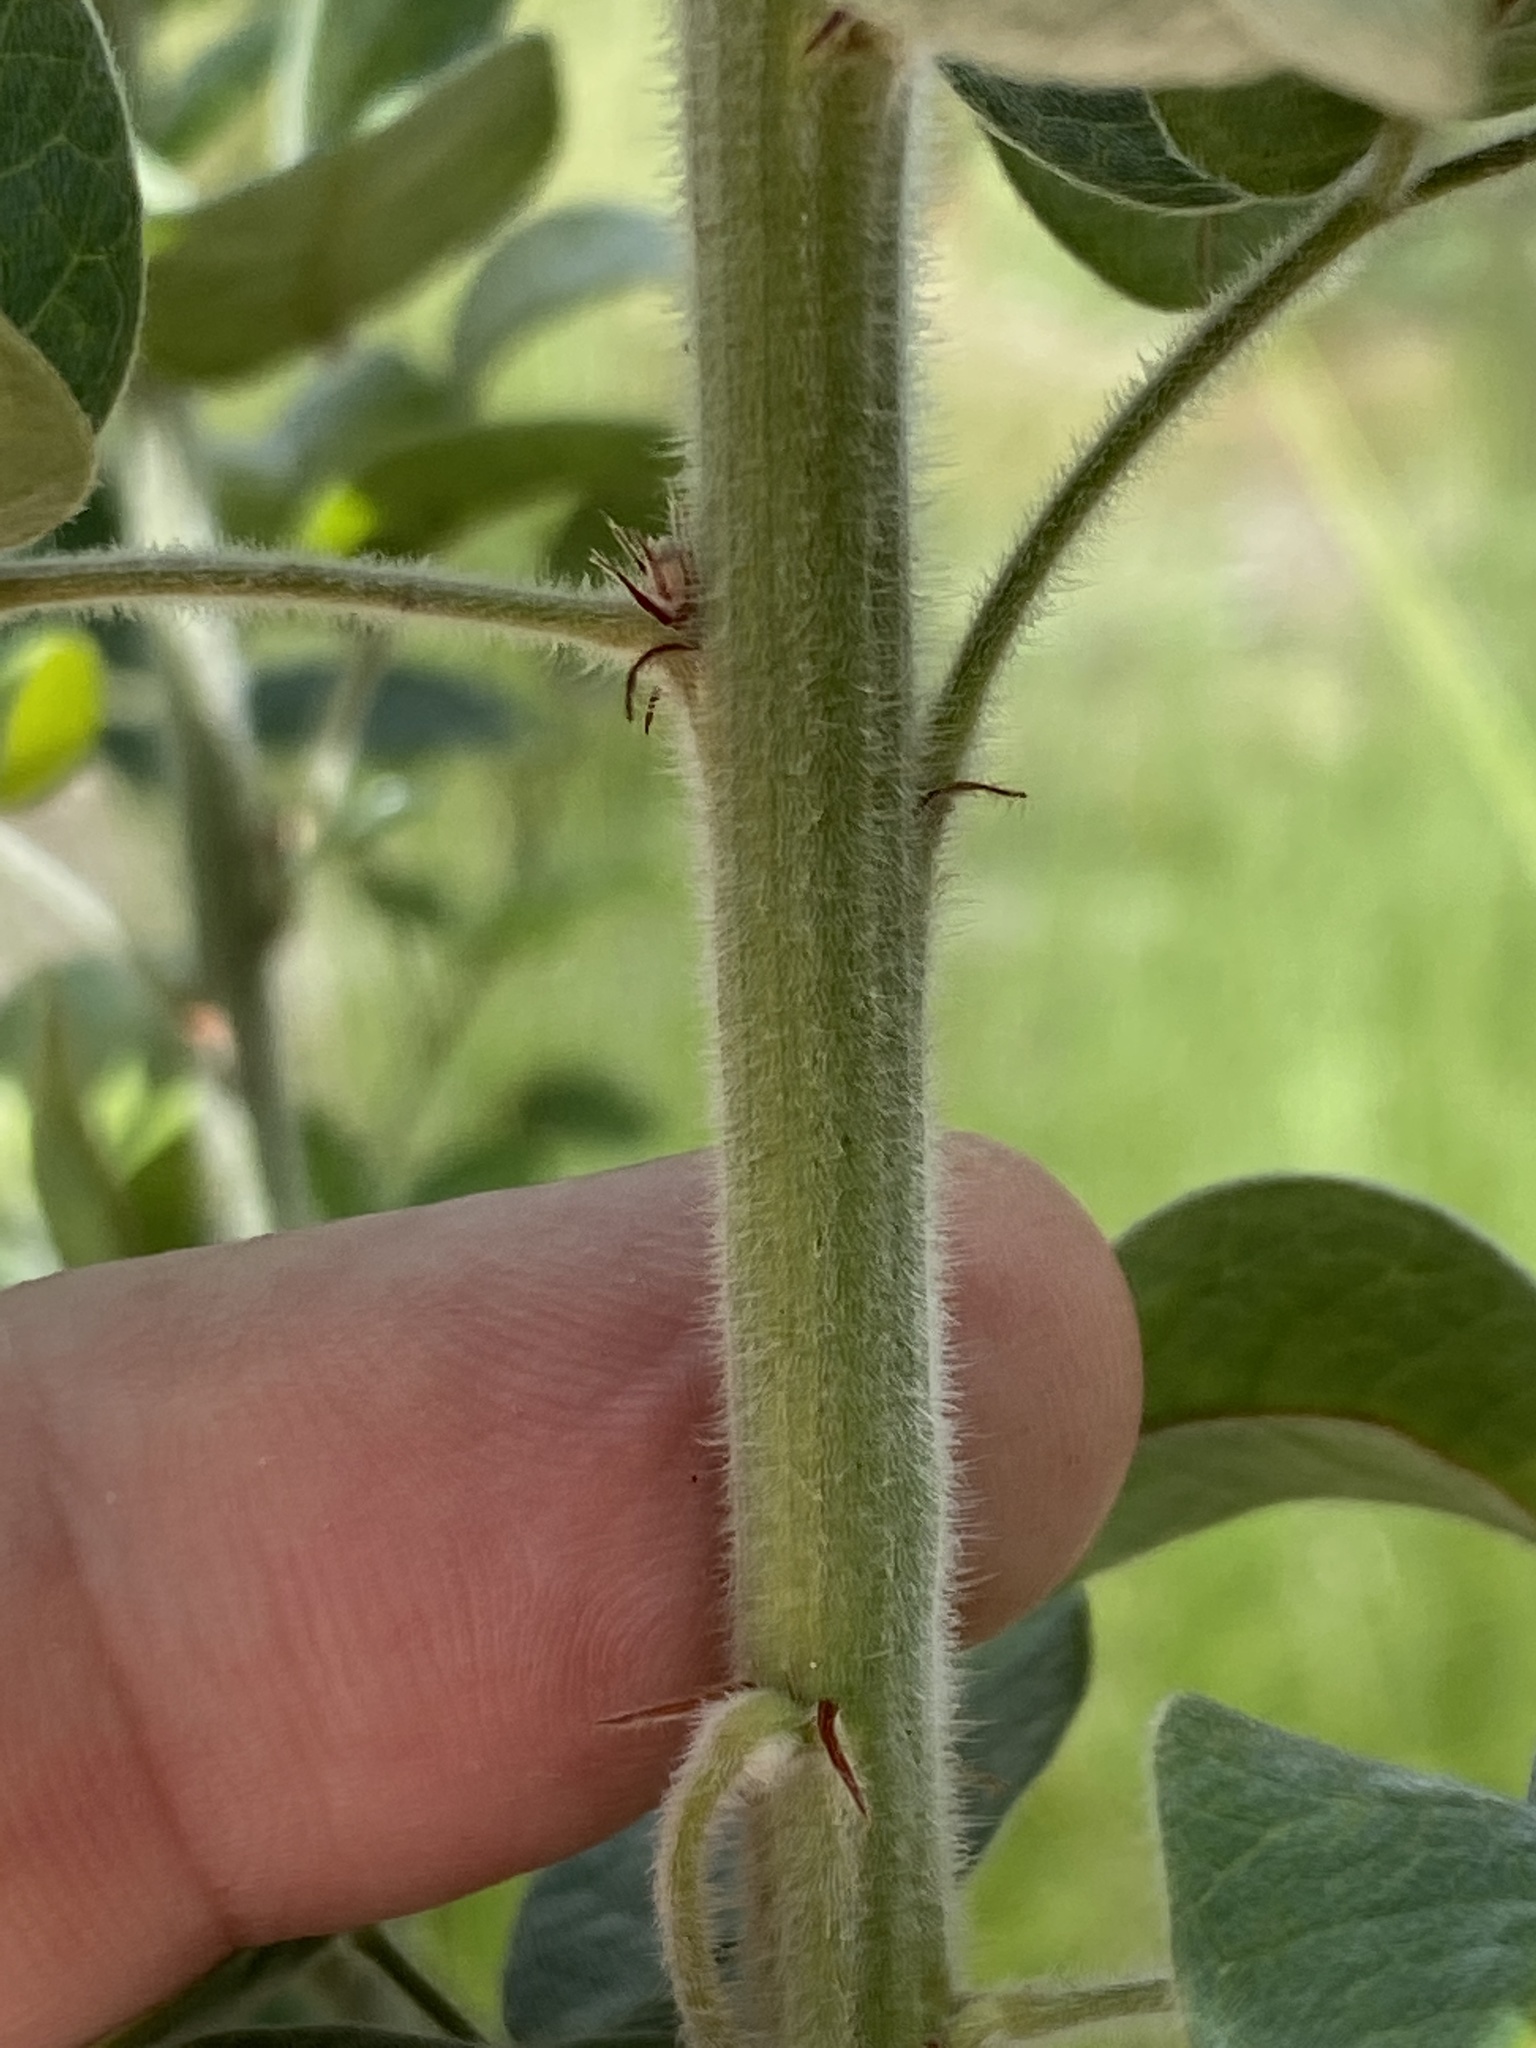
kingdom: Plantae
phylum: Tracheophyta
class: Magnoliopsida
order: Fabales
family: Fabaceae
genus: Lespedeza
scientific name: Lespedeza hirta
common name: Hairy lespedeza
